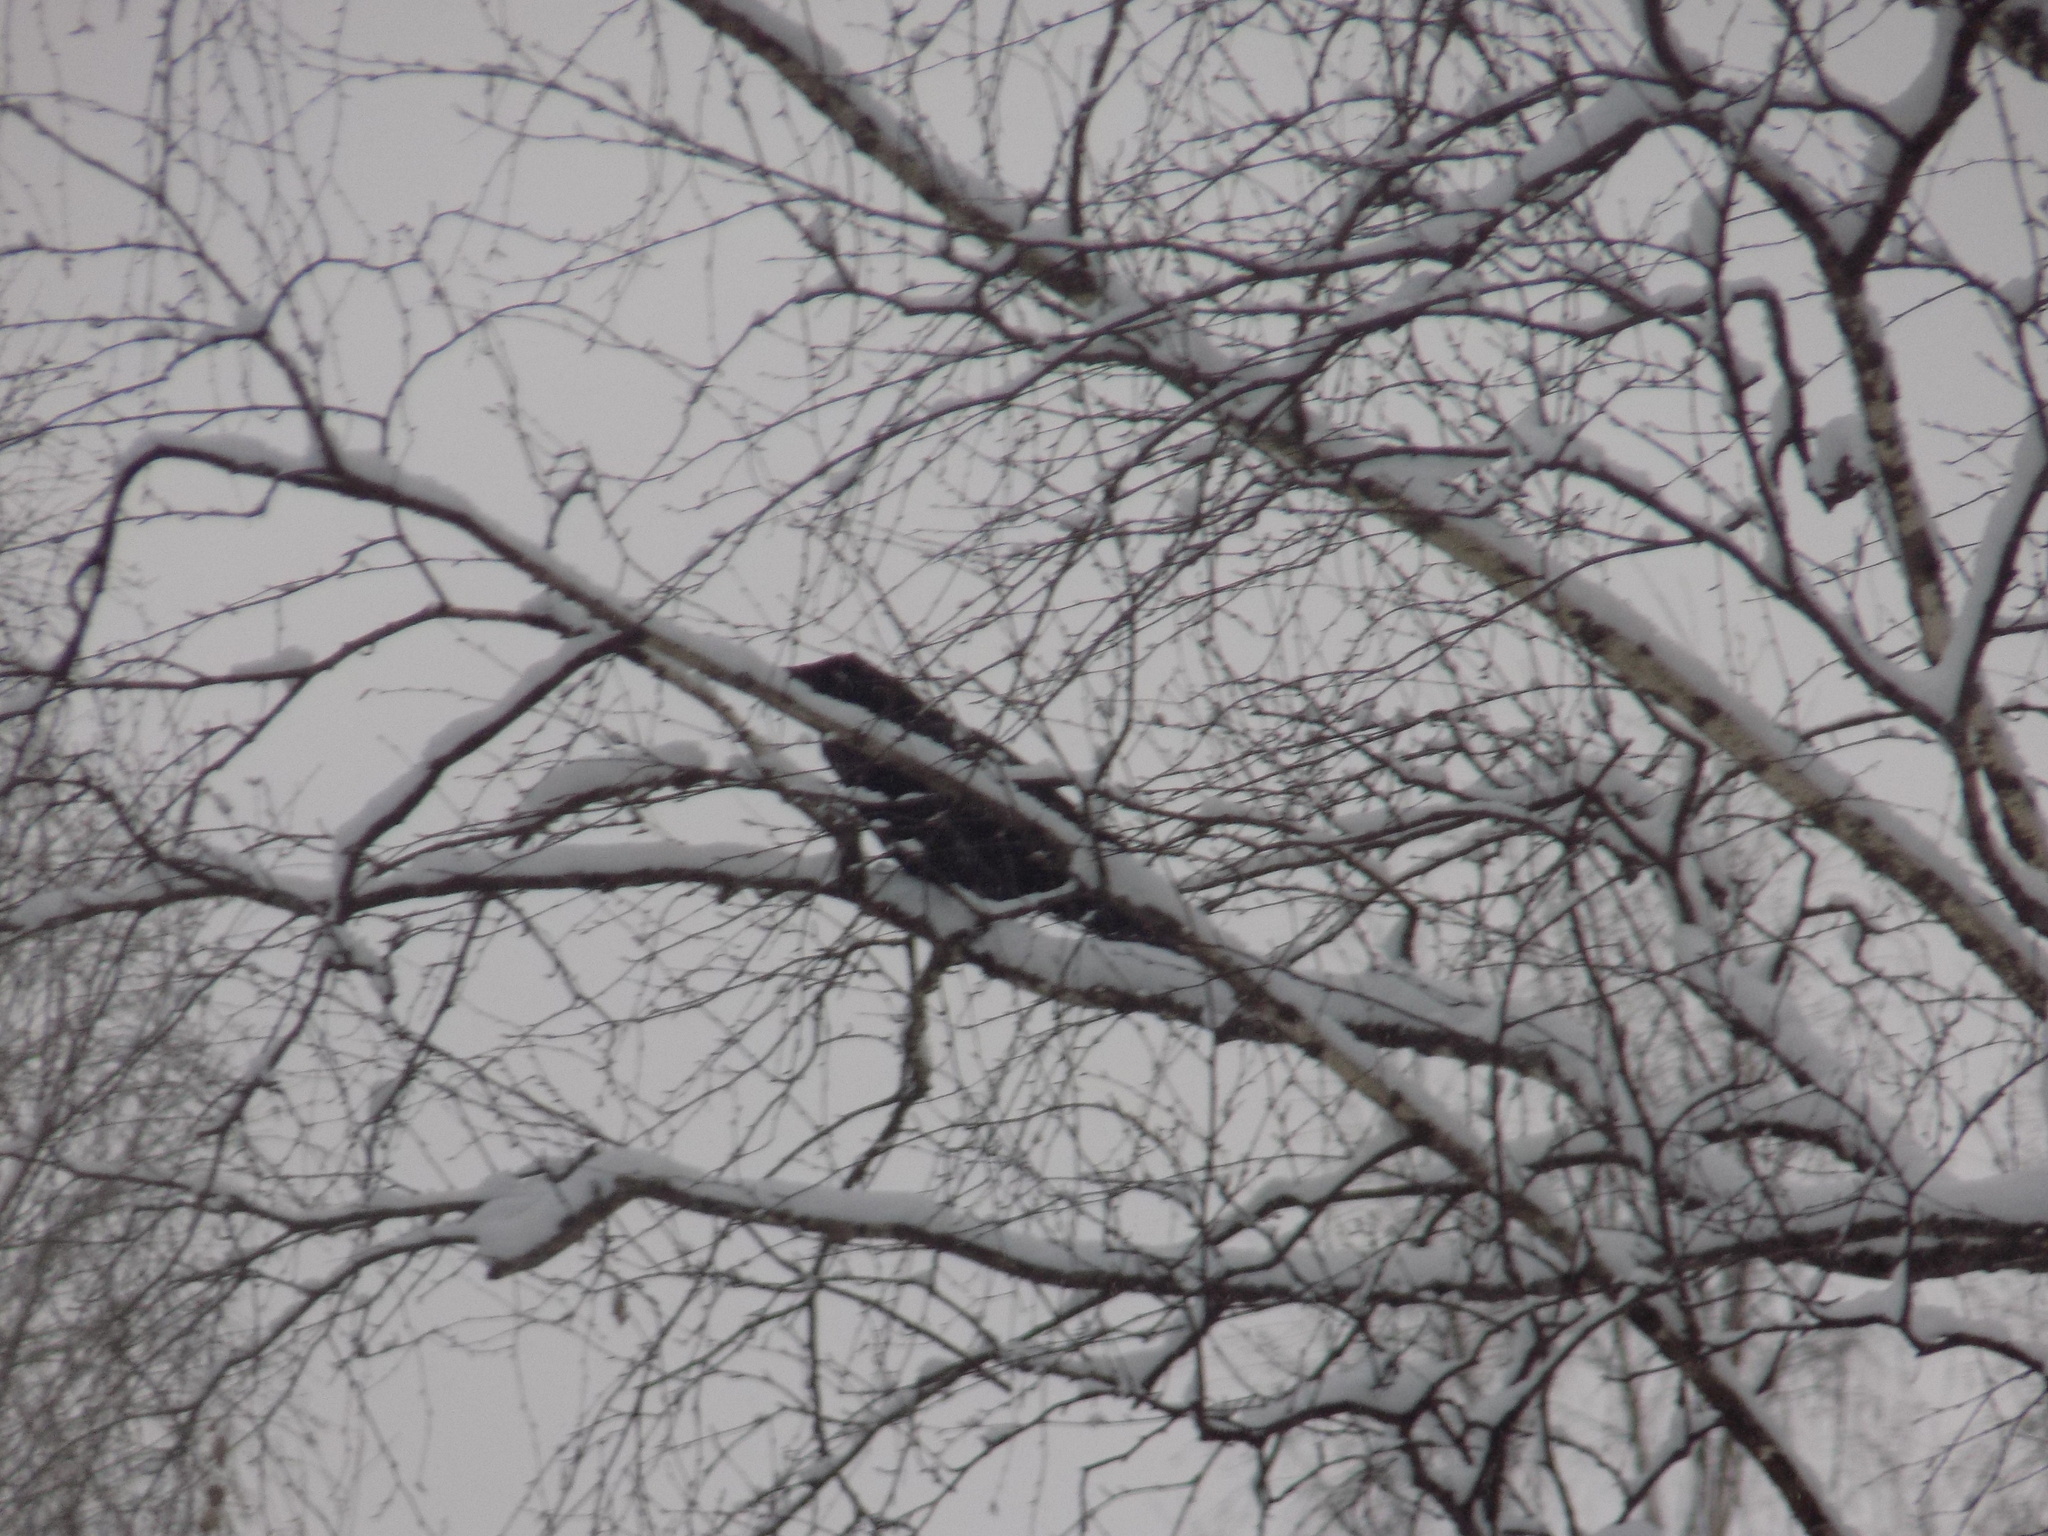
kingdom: Animalia
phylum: Chordata
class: Aves
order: Passeriformes
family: Corvidae
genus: Corvus
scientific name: Corvus corax
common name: Common raven
